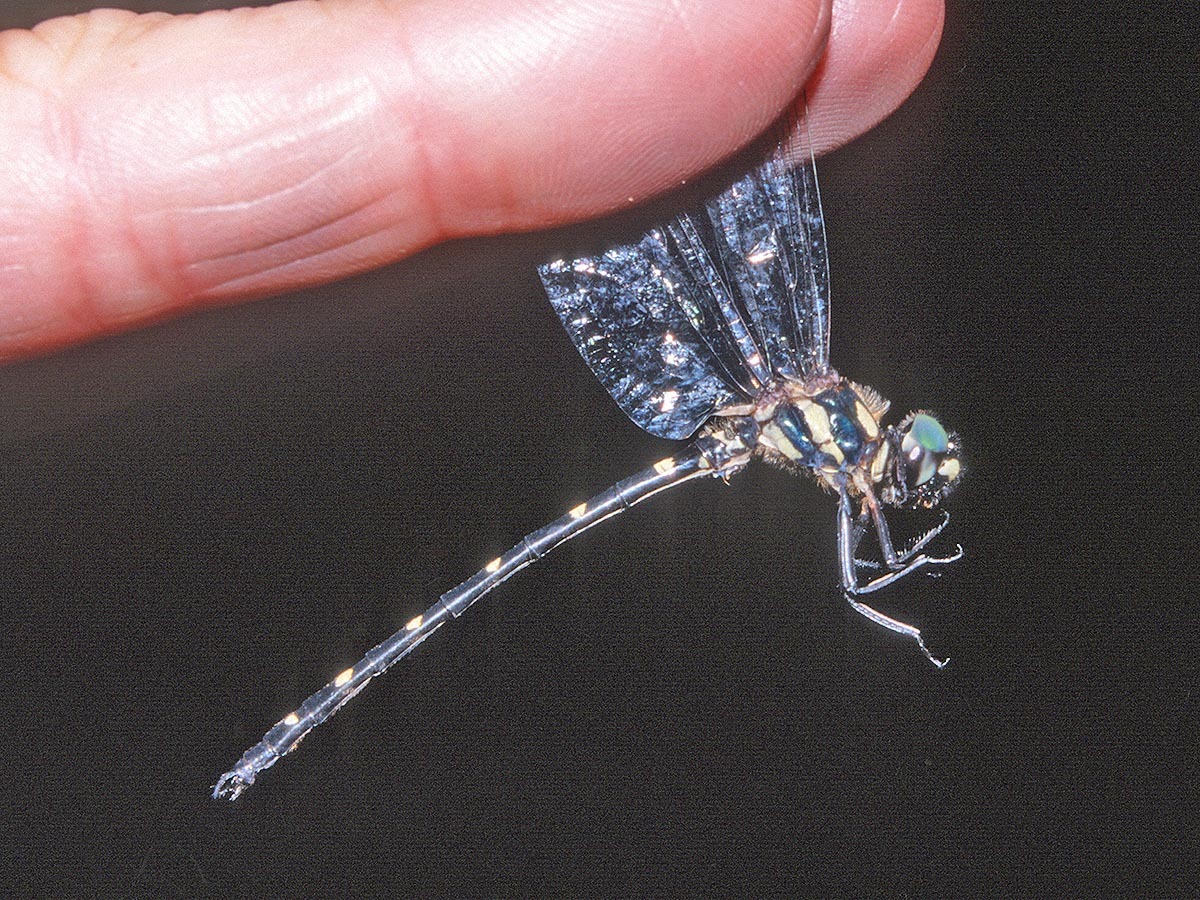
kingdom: Animalia
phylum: Arthropoda
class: Insecta
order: Odonata
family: Synthemistidae
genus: Eusynthemis
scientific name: Eusynthemis netta
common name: Pretty tigertail
